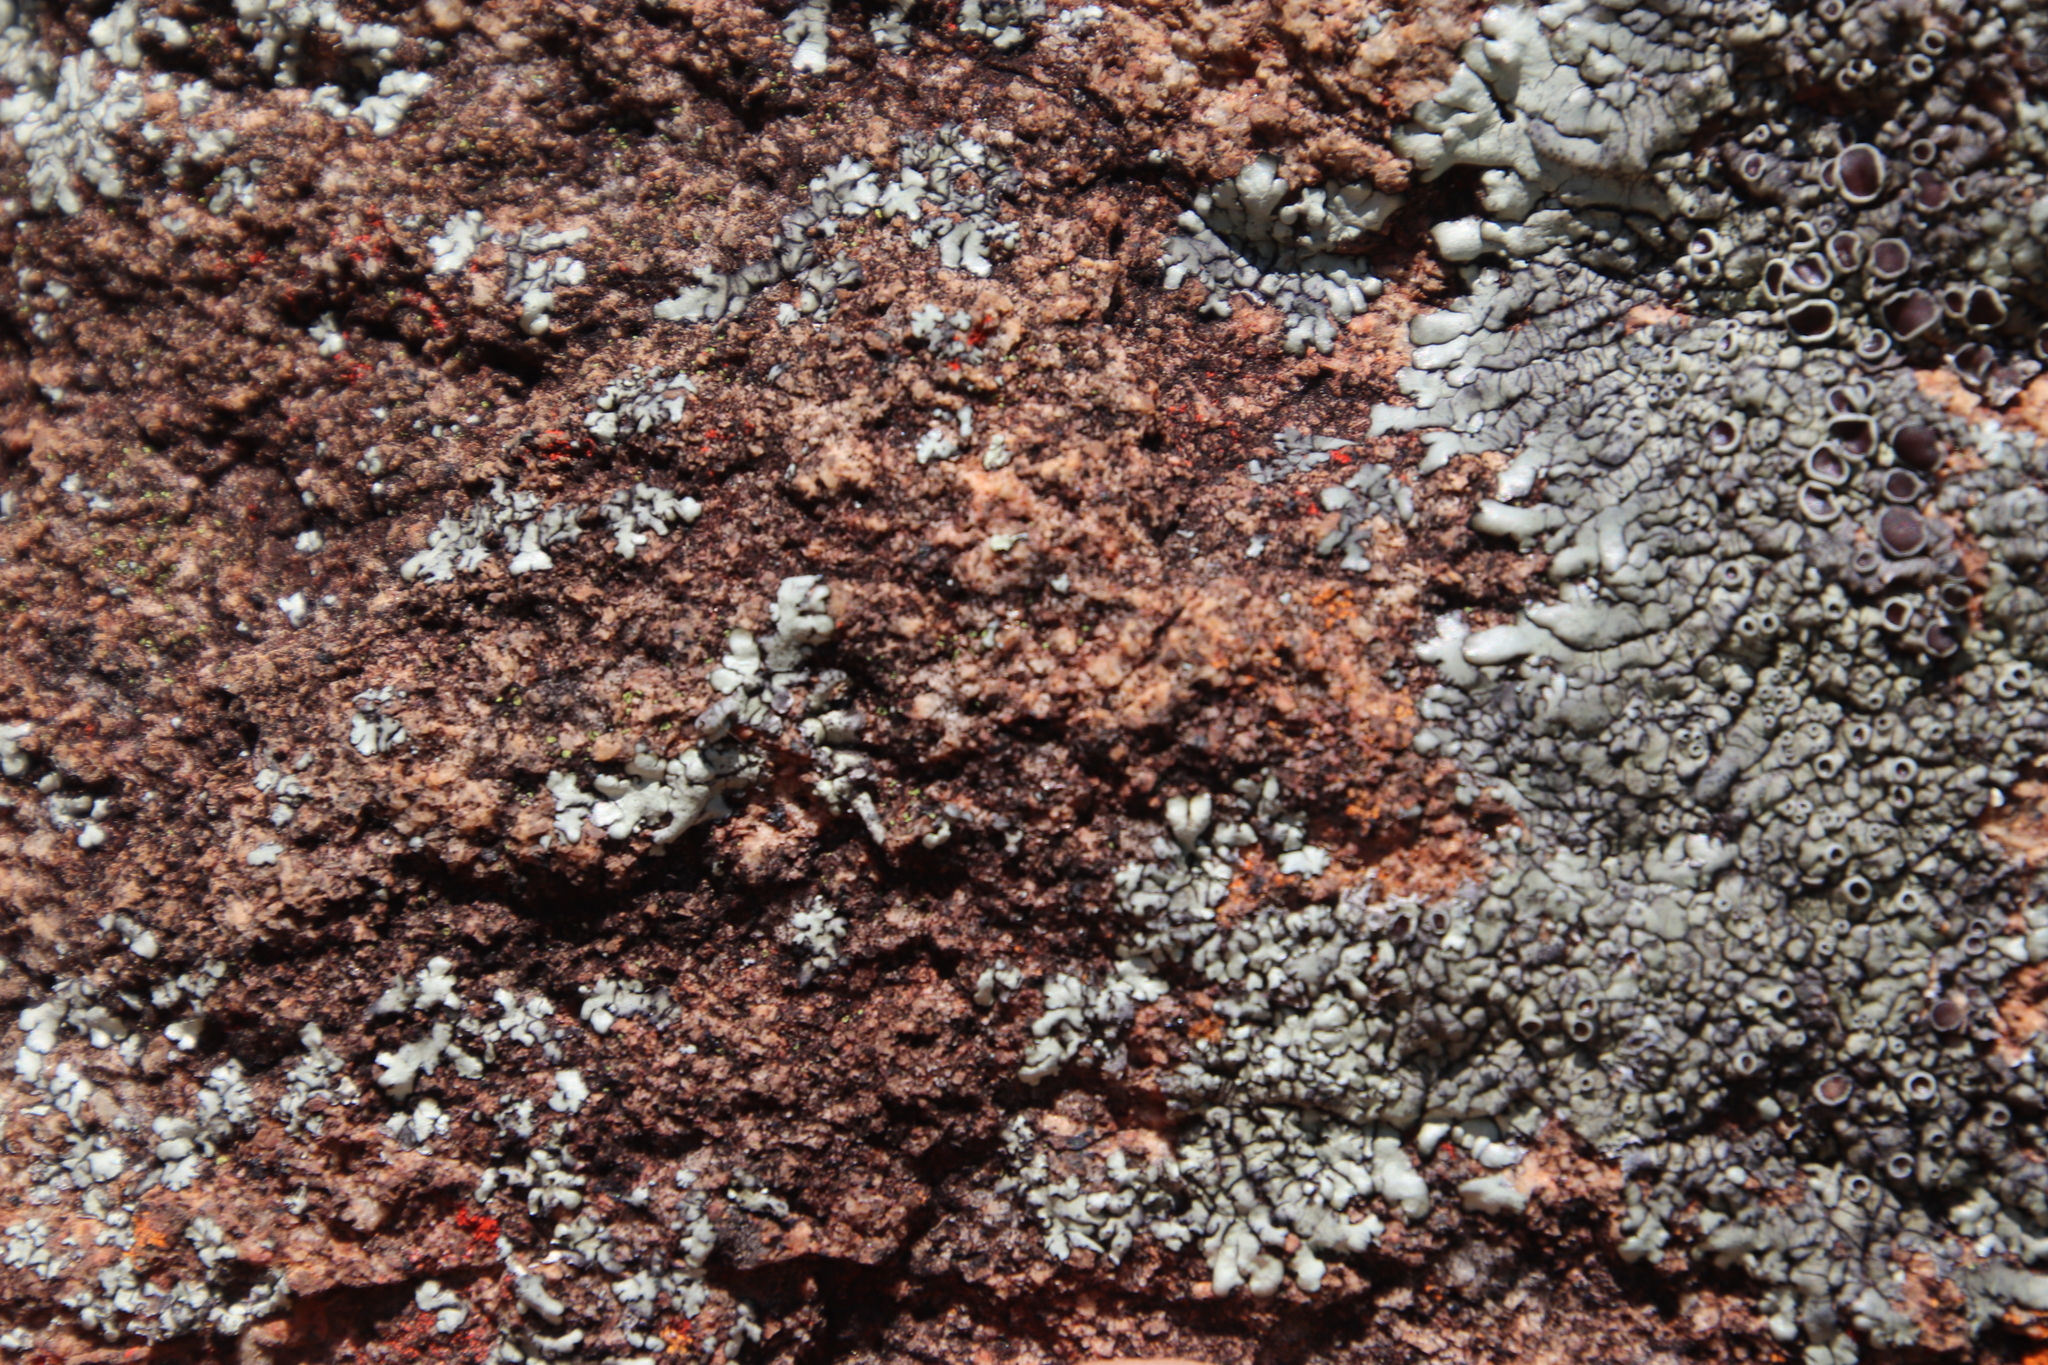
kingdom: Fungi
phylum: Ascomycota
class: Lecanoromycetes
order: Lecanorales
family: Parmeliaceae
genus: Xanthoparmelia
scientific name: Xanthoparmelia conspersa
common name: Peppered rock shield
